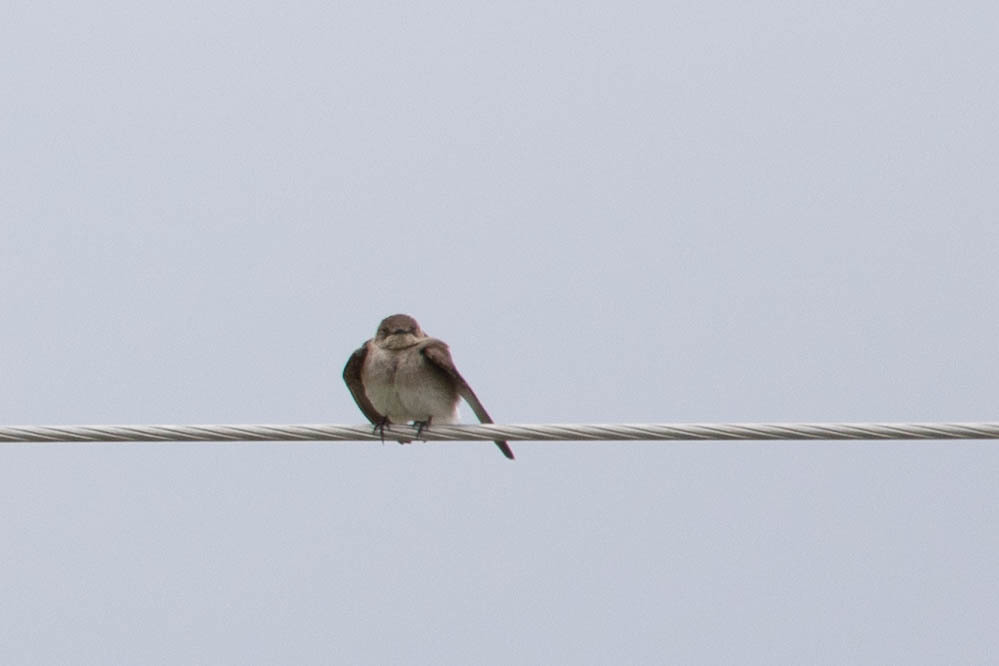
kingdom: Animalia
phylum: Chordata
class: Aves
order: Passeriformes
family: Hirundinidae
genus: Stelgidopteryx
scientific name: Stelgidopteryx serripennis
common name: Northern rough-winged swallow
